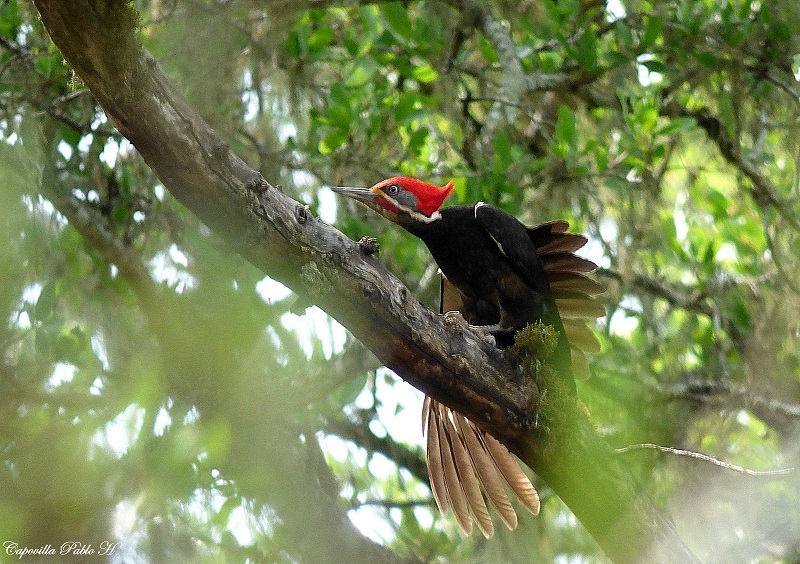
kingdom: Animalia
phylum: Chordata
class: Aves
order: Piciformes
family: Picidae
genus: Dryocopus
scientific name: Dryocopus schulzii
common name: Black-bodied woodpecker
